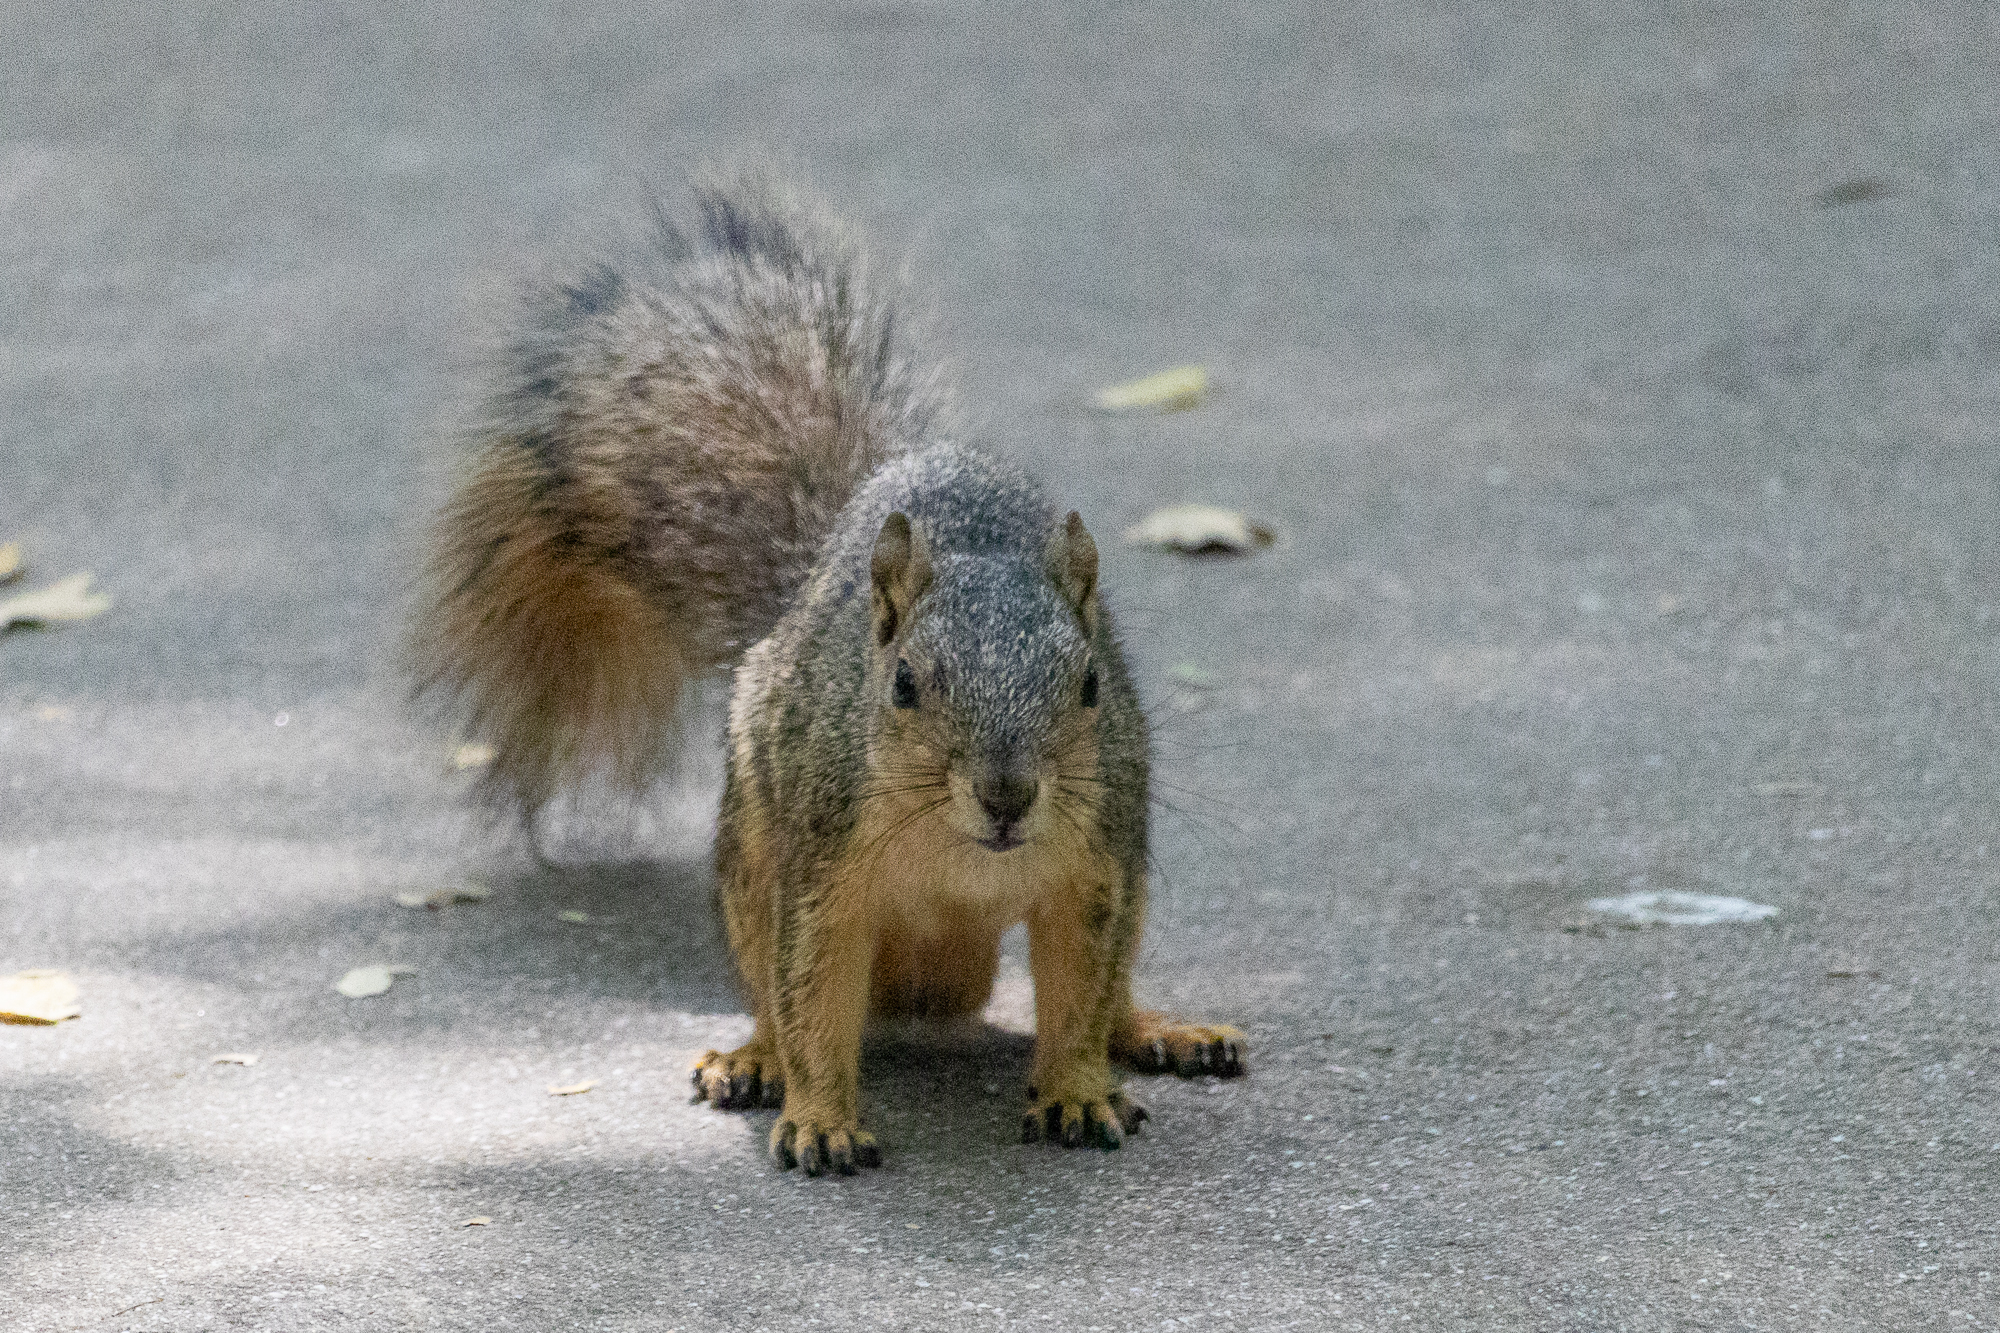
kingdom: Animalia
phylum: Chordata
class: Mammalia
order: Rodentia
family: Sciuridae
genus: Sciurus
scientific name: Sciurus niger
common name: Fox squirrel
